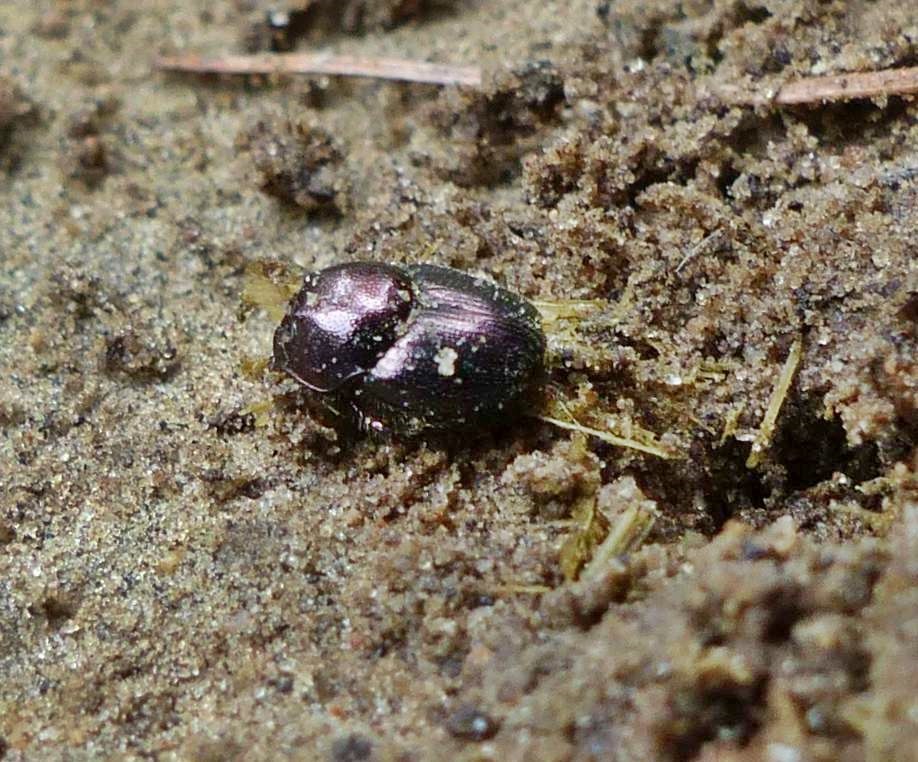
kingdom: Animalia
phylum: Arthropoda
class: Insecta
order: Coleoptera
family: Scarabaeidae
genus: Onthophagus
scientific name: Onthophagus orpheus
